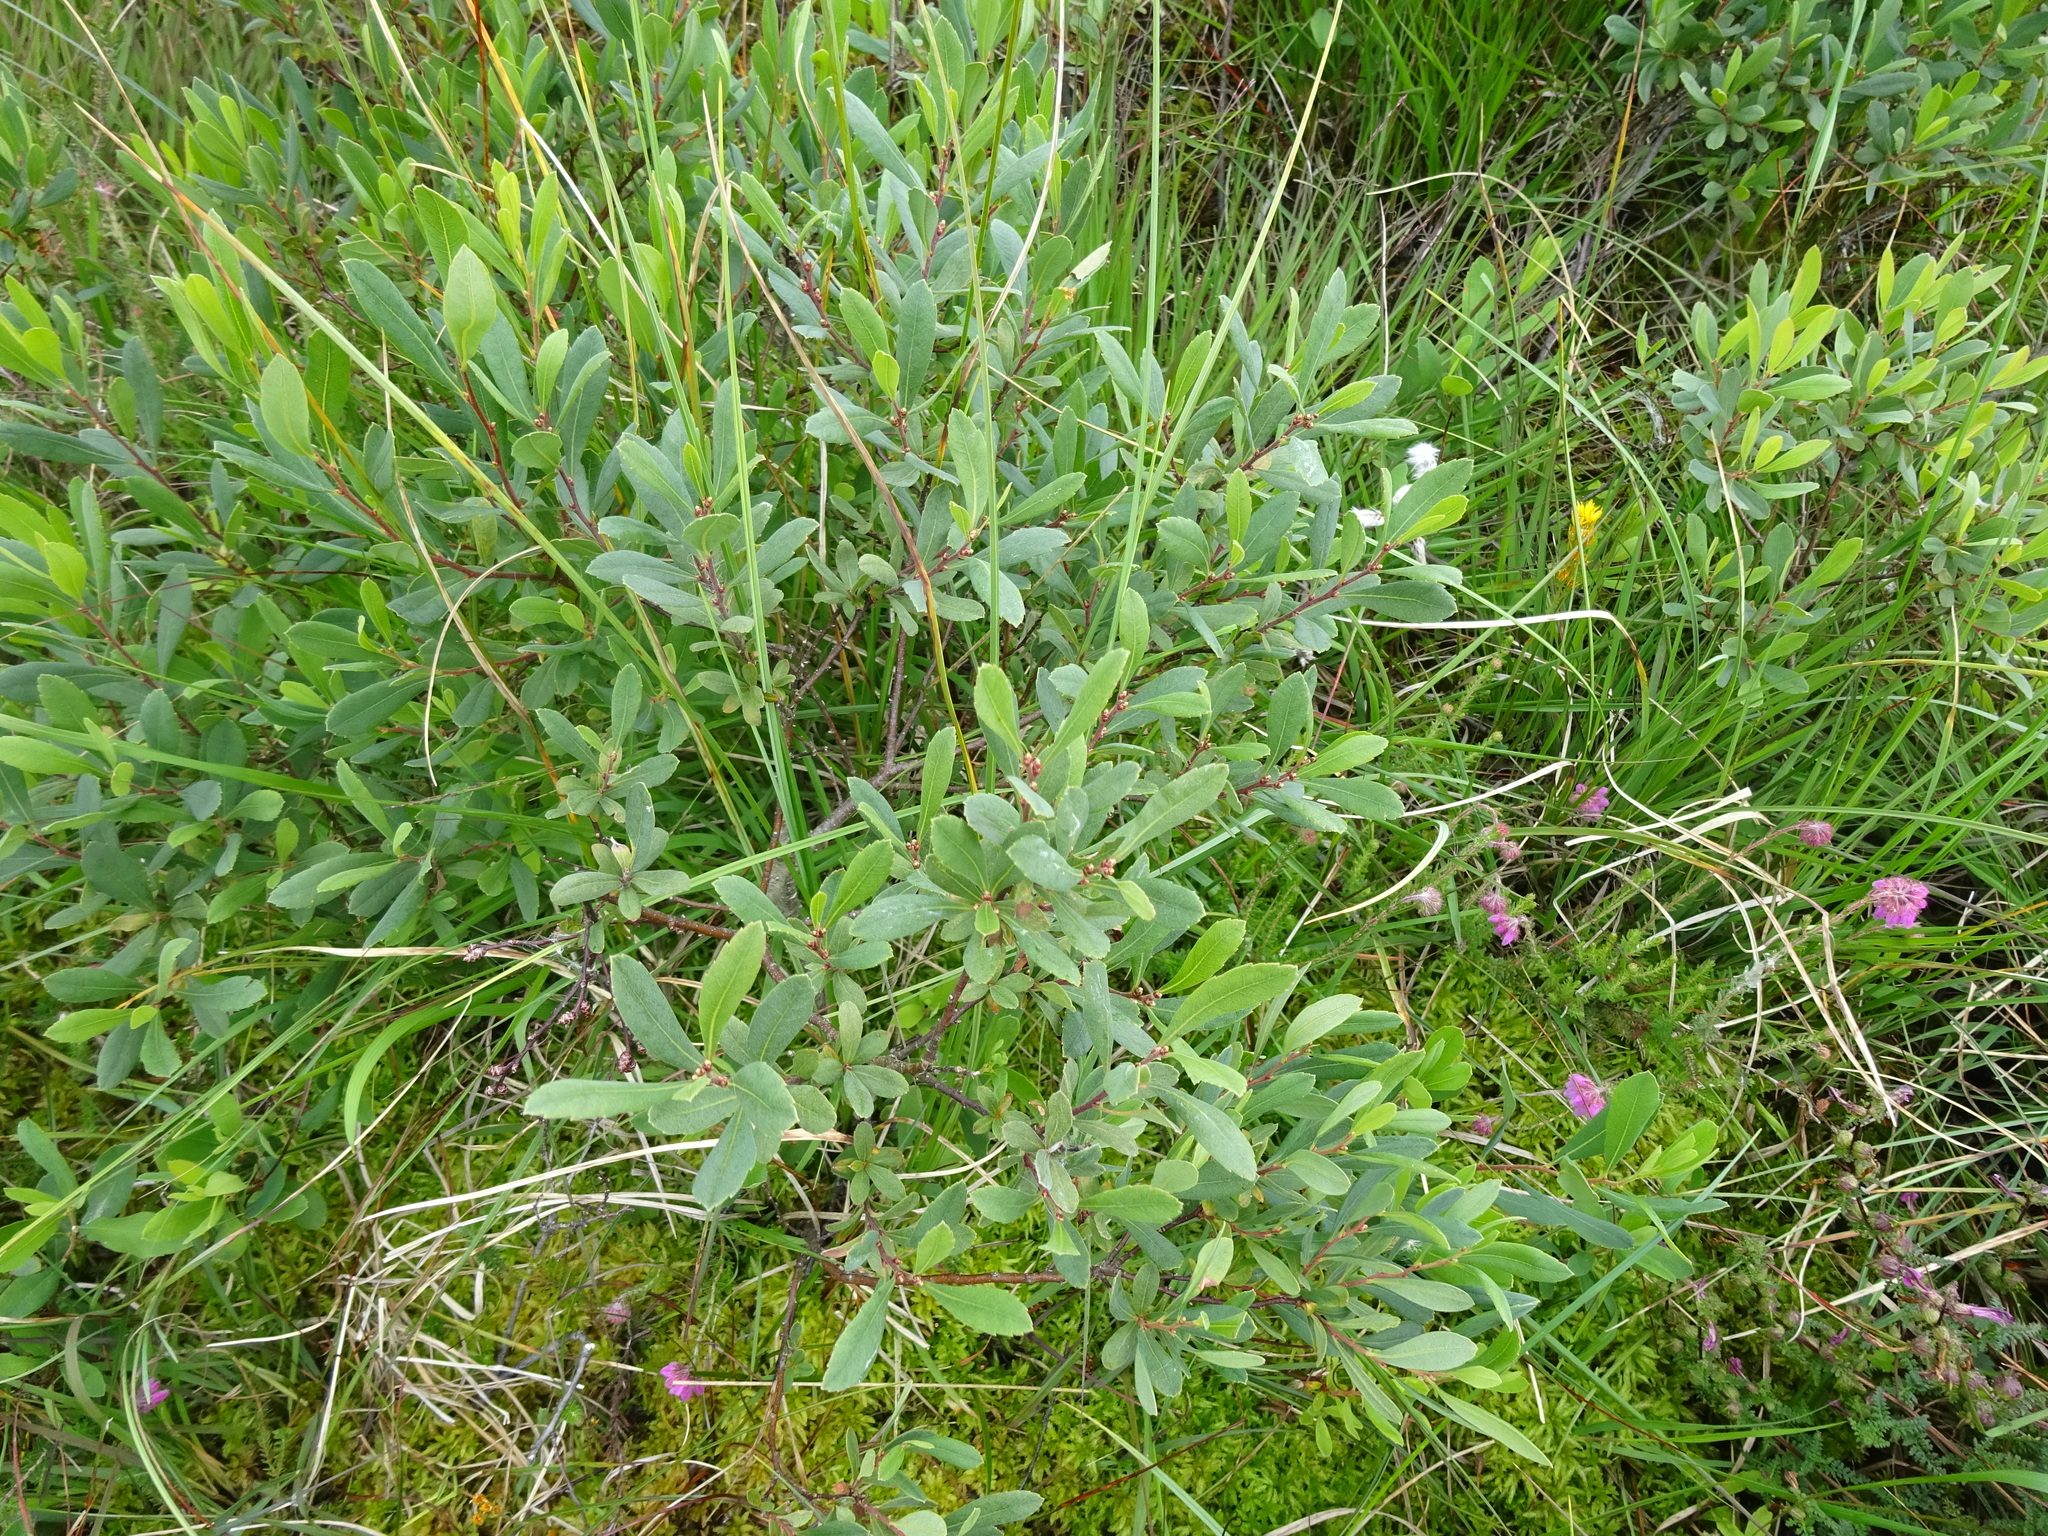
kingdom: Plantae
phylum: Tracheophyta
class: Magnoliopsida
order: Fagales
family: Myricaceae
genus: Myrica
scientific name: Myrica gale
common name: Sweet gale
